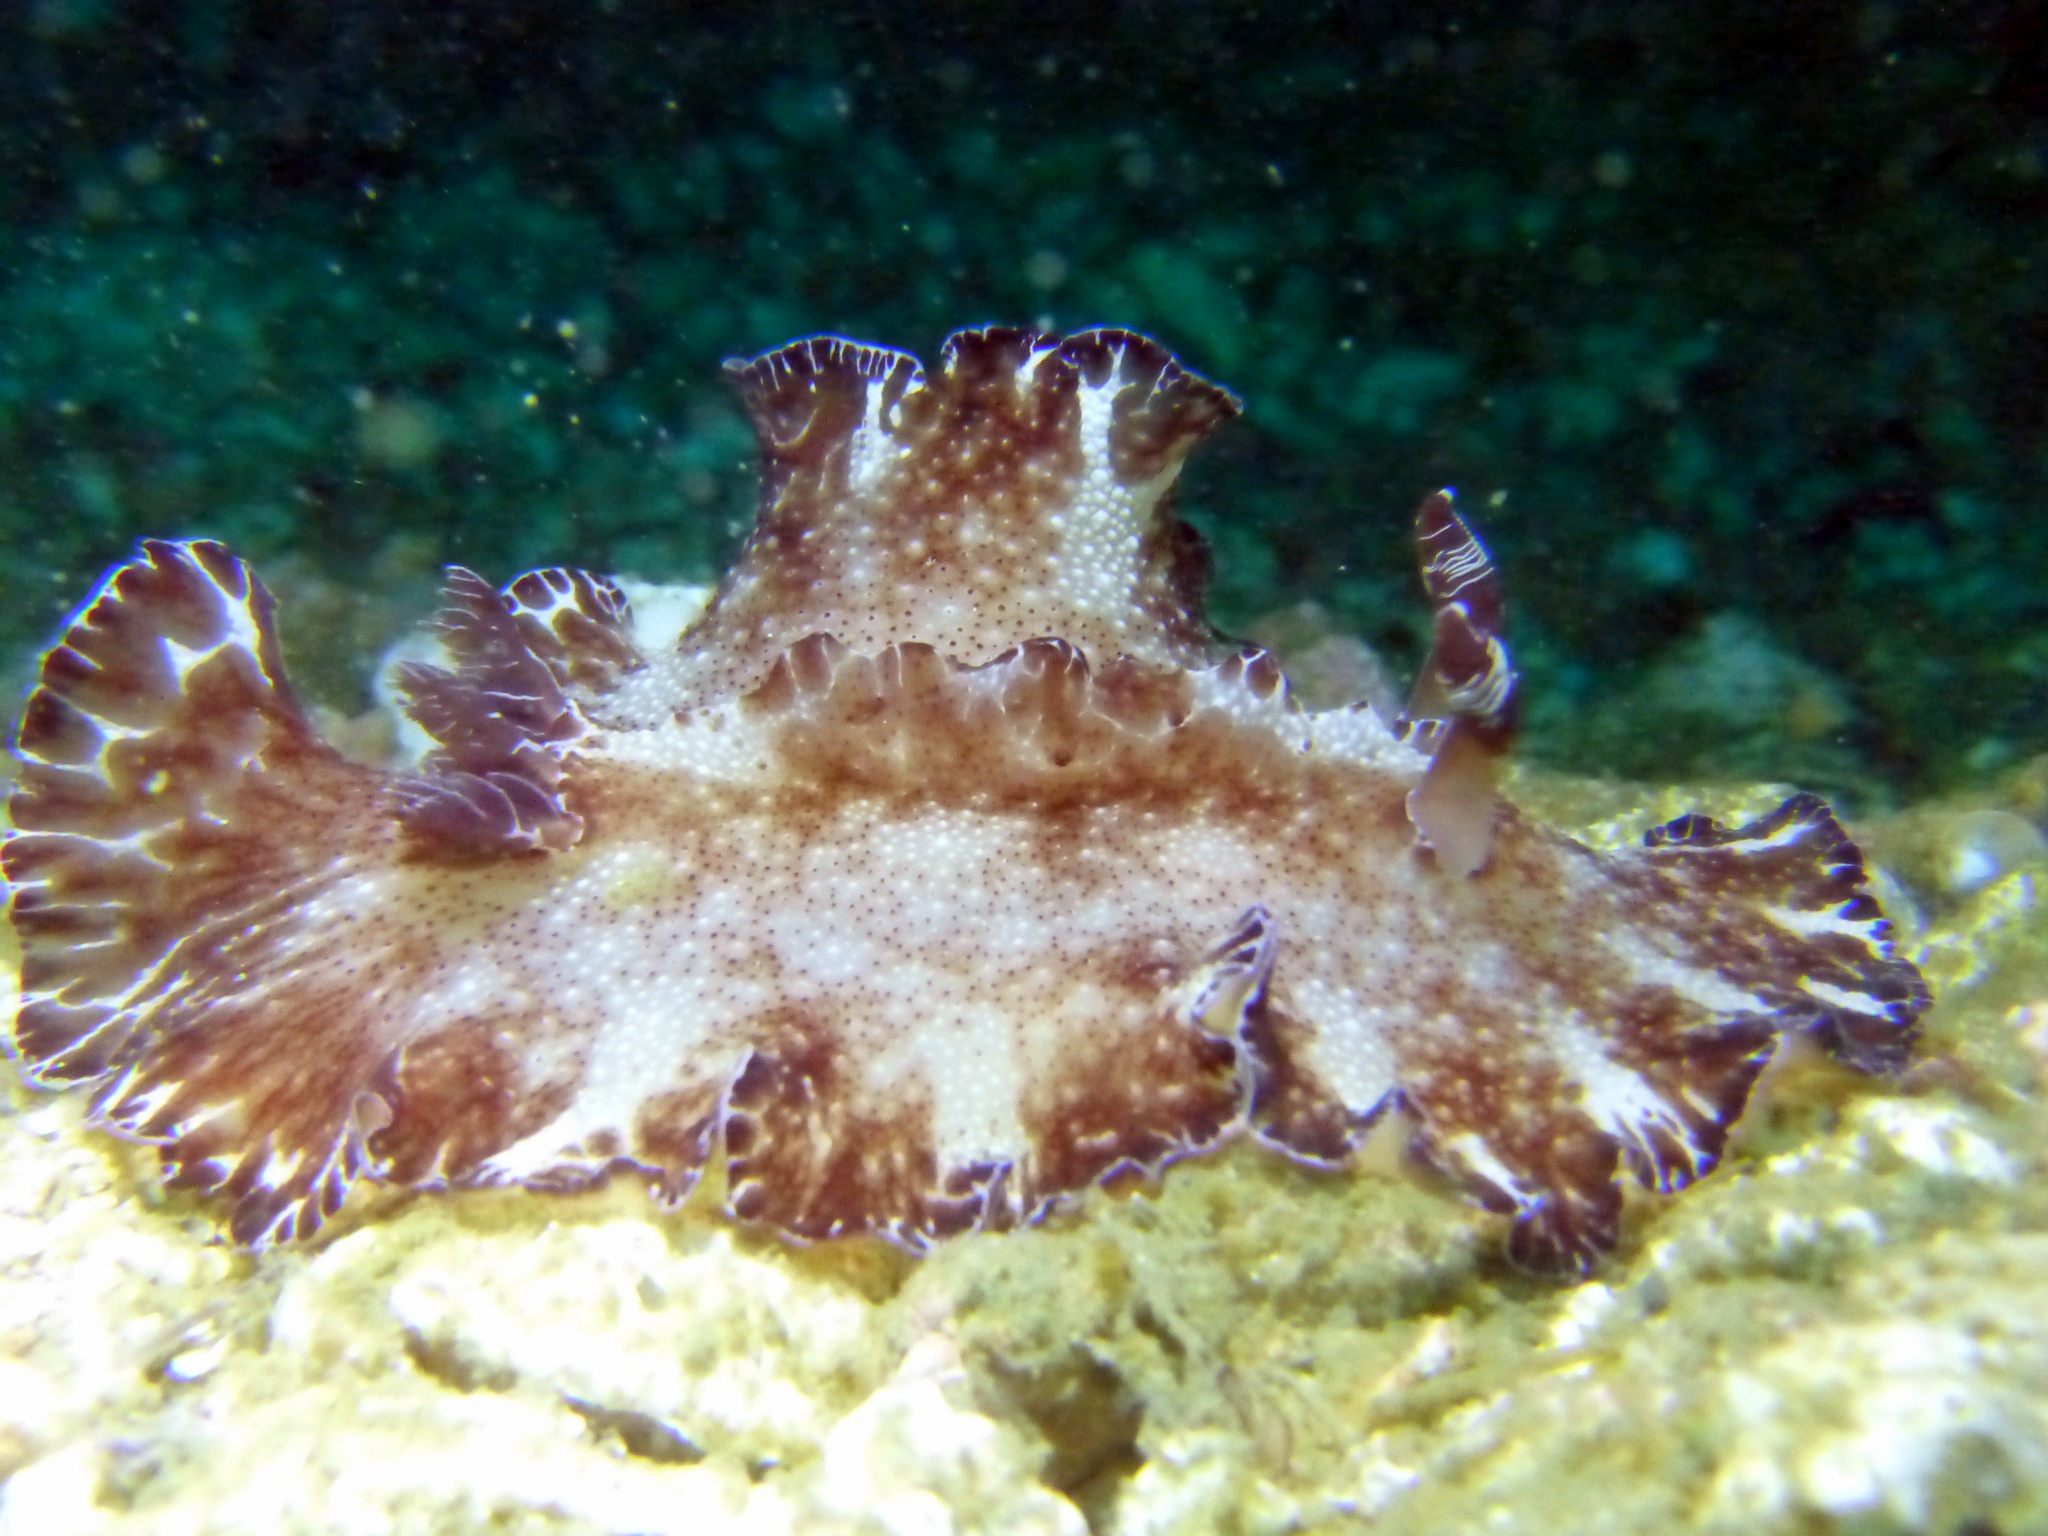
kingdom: Animalia
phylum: Mollusca
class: Gastropoda
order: Nudibranchia
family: Discodorididae
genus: Discodoris
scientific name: Discodoris boholiensis
